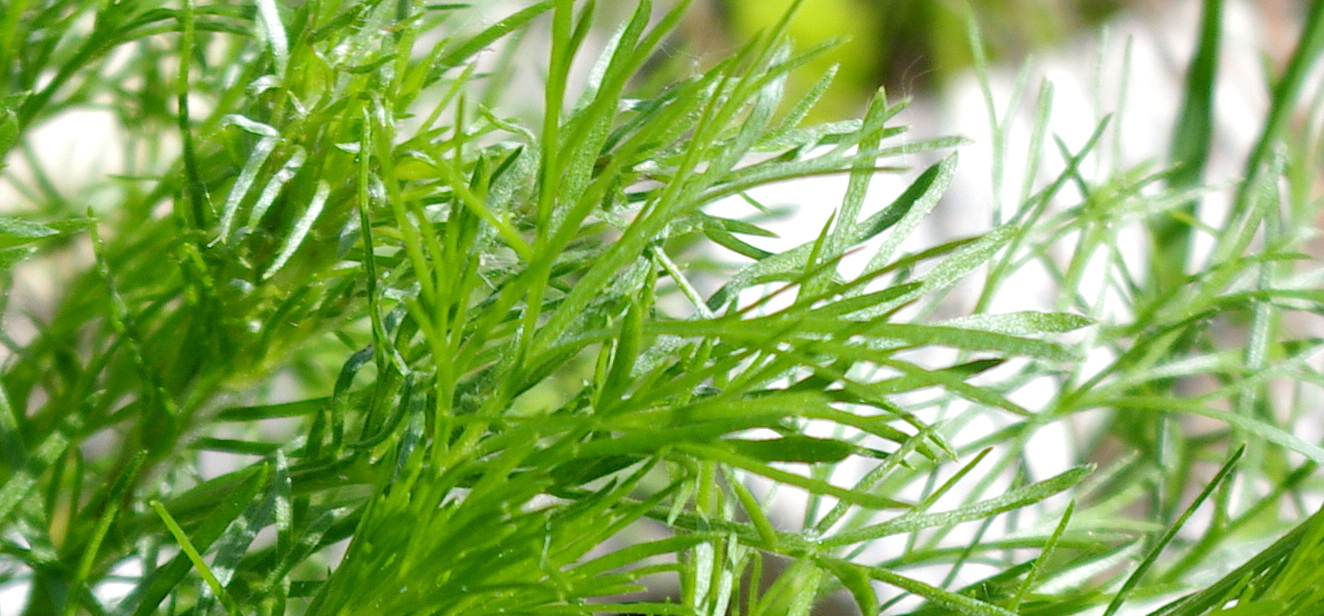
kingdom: Plantae
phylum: Tracheophyta
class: Magnoliopsida
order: Asterales
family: Asteraceae
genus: Artemisia
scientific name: Artemisia campestris
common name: Field wormwood
